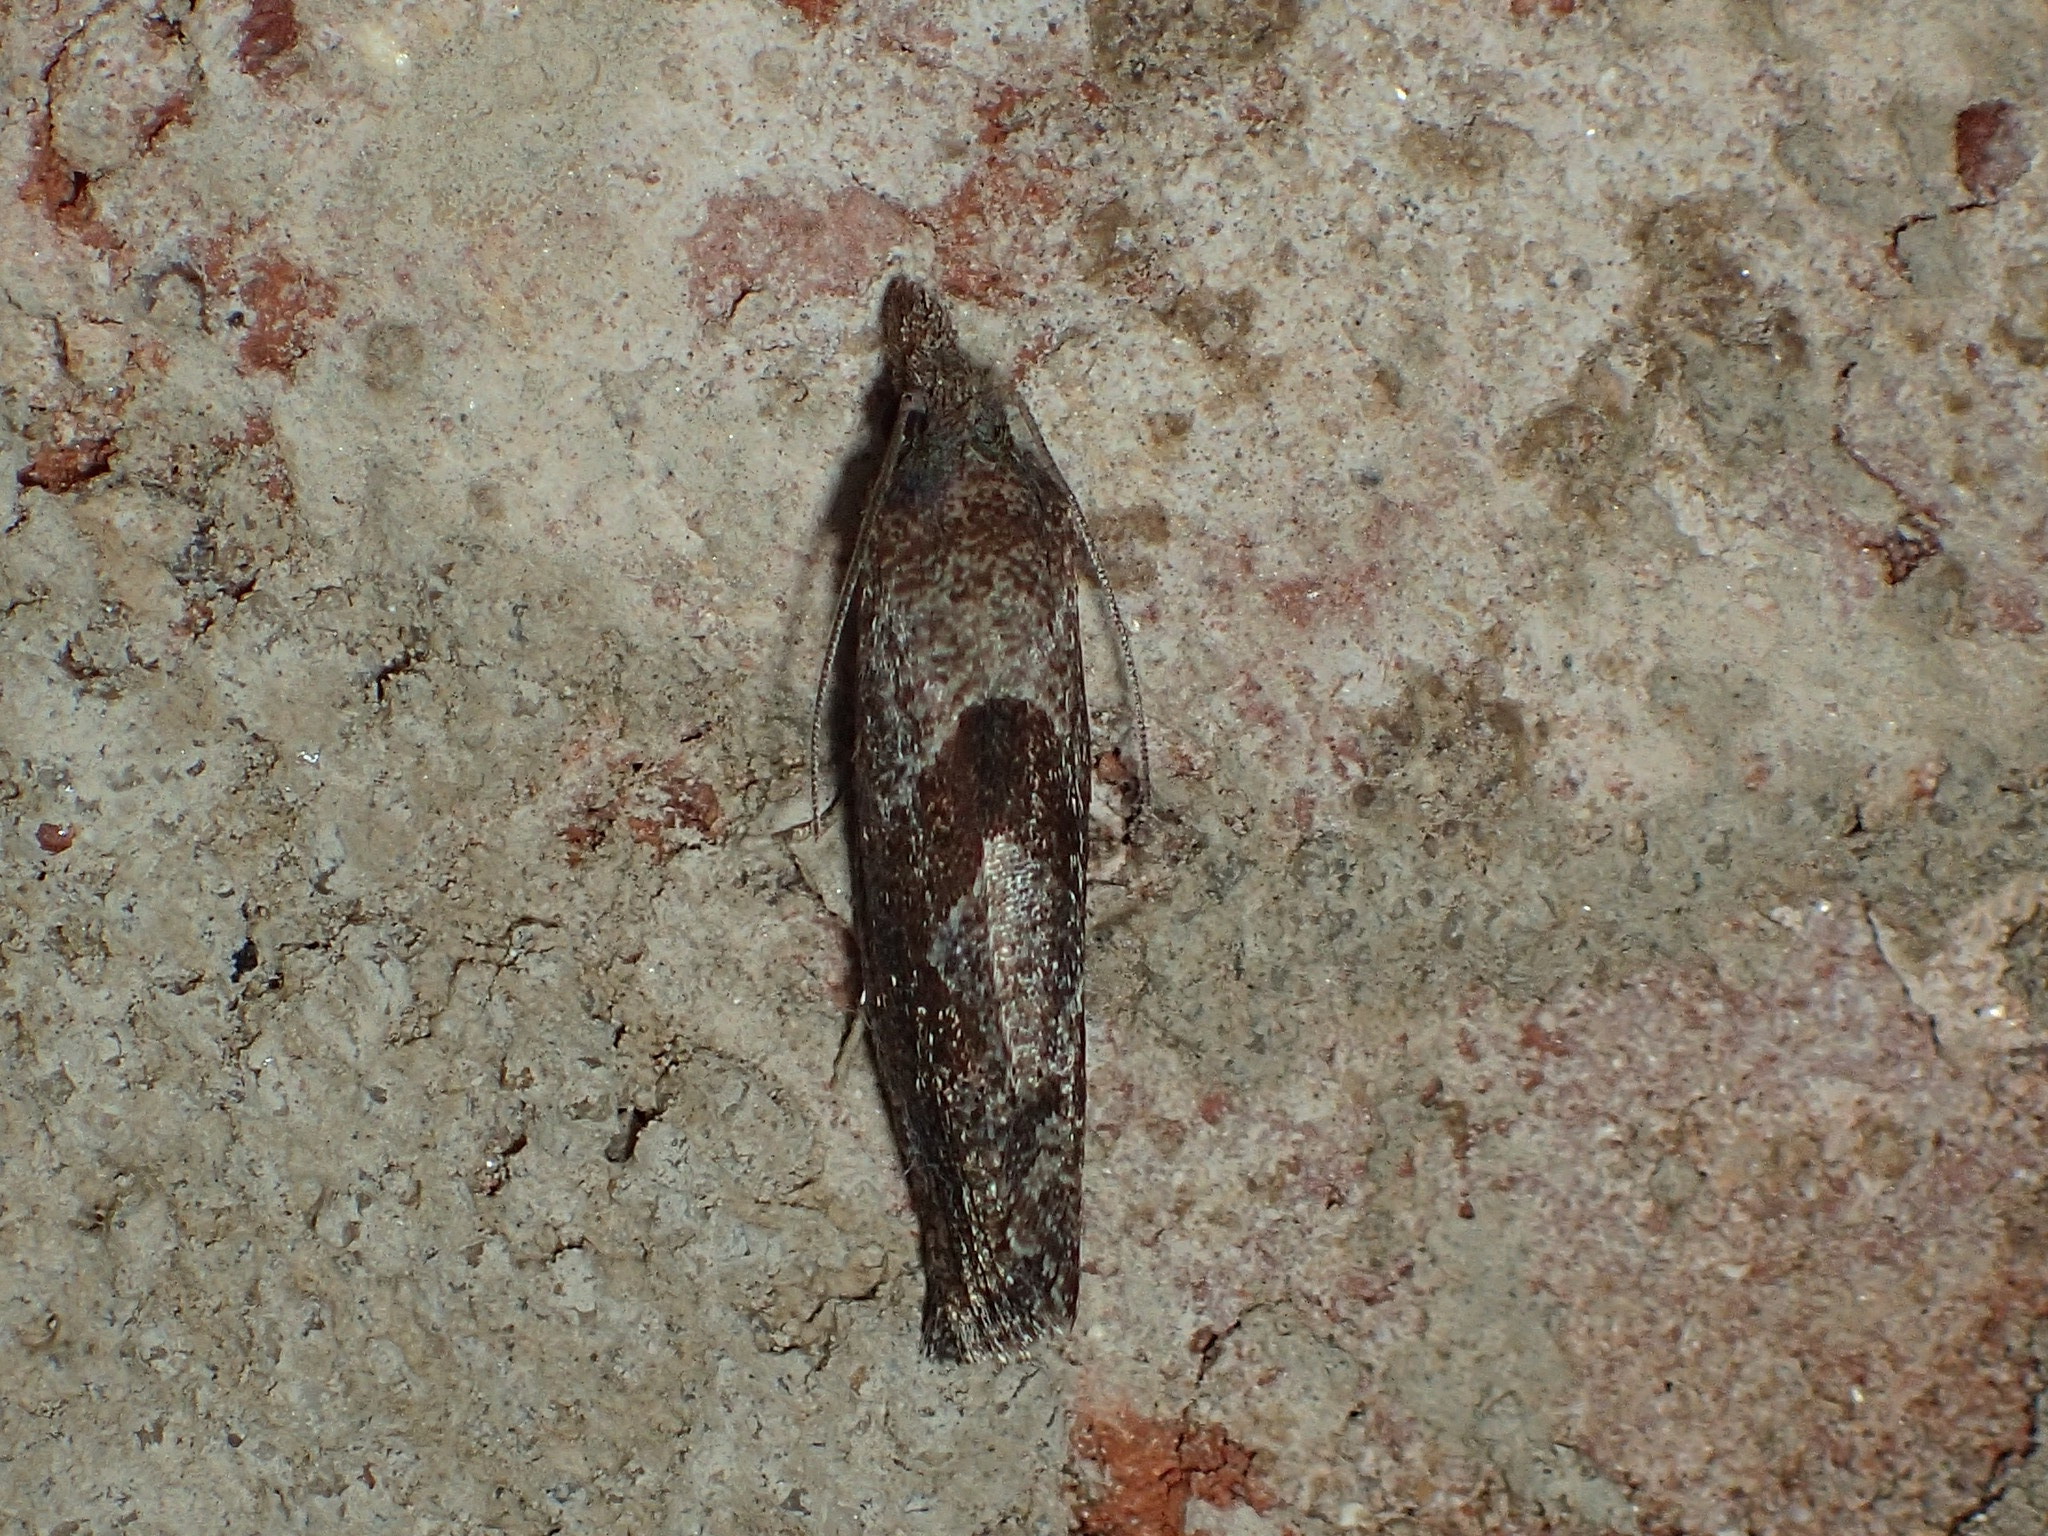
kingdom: Animalia
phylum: Arthropoda
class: Insecta
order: Lepidoptera
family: Tortricidae
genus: Pelochrista
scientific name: Pelochrista similiana
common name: Similar eucosma
